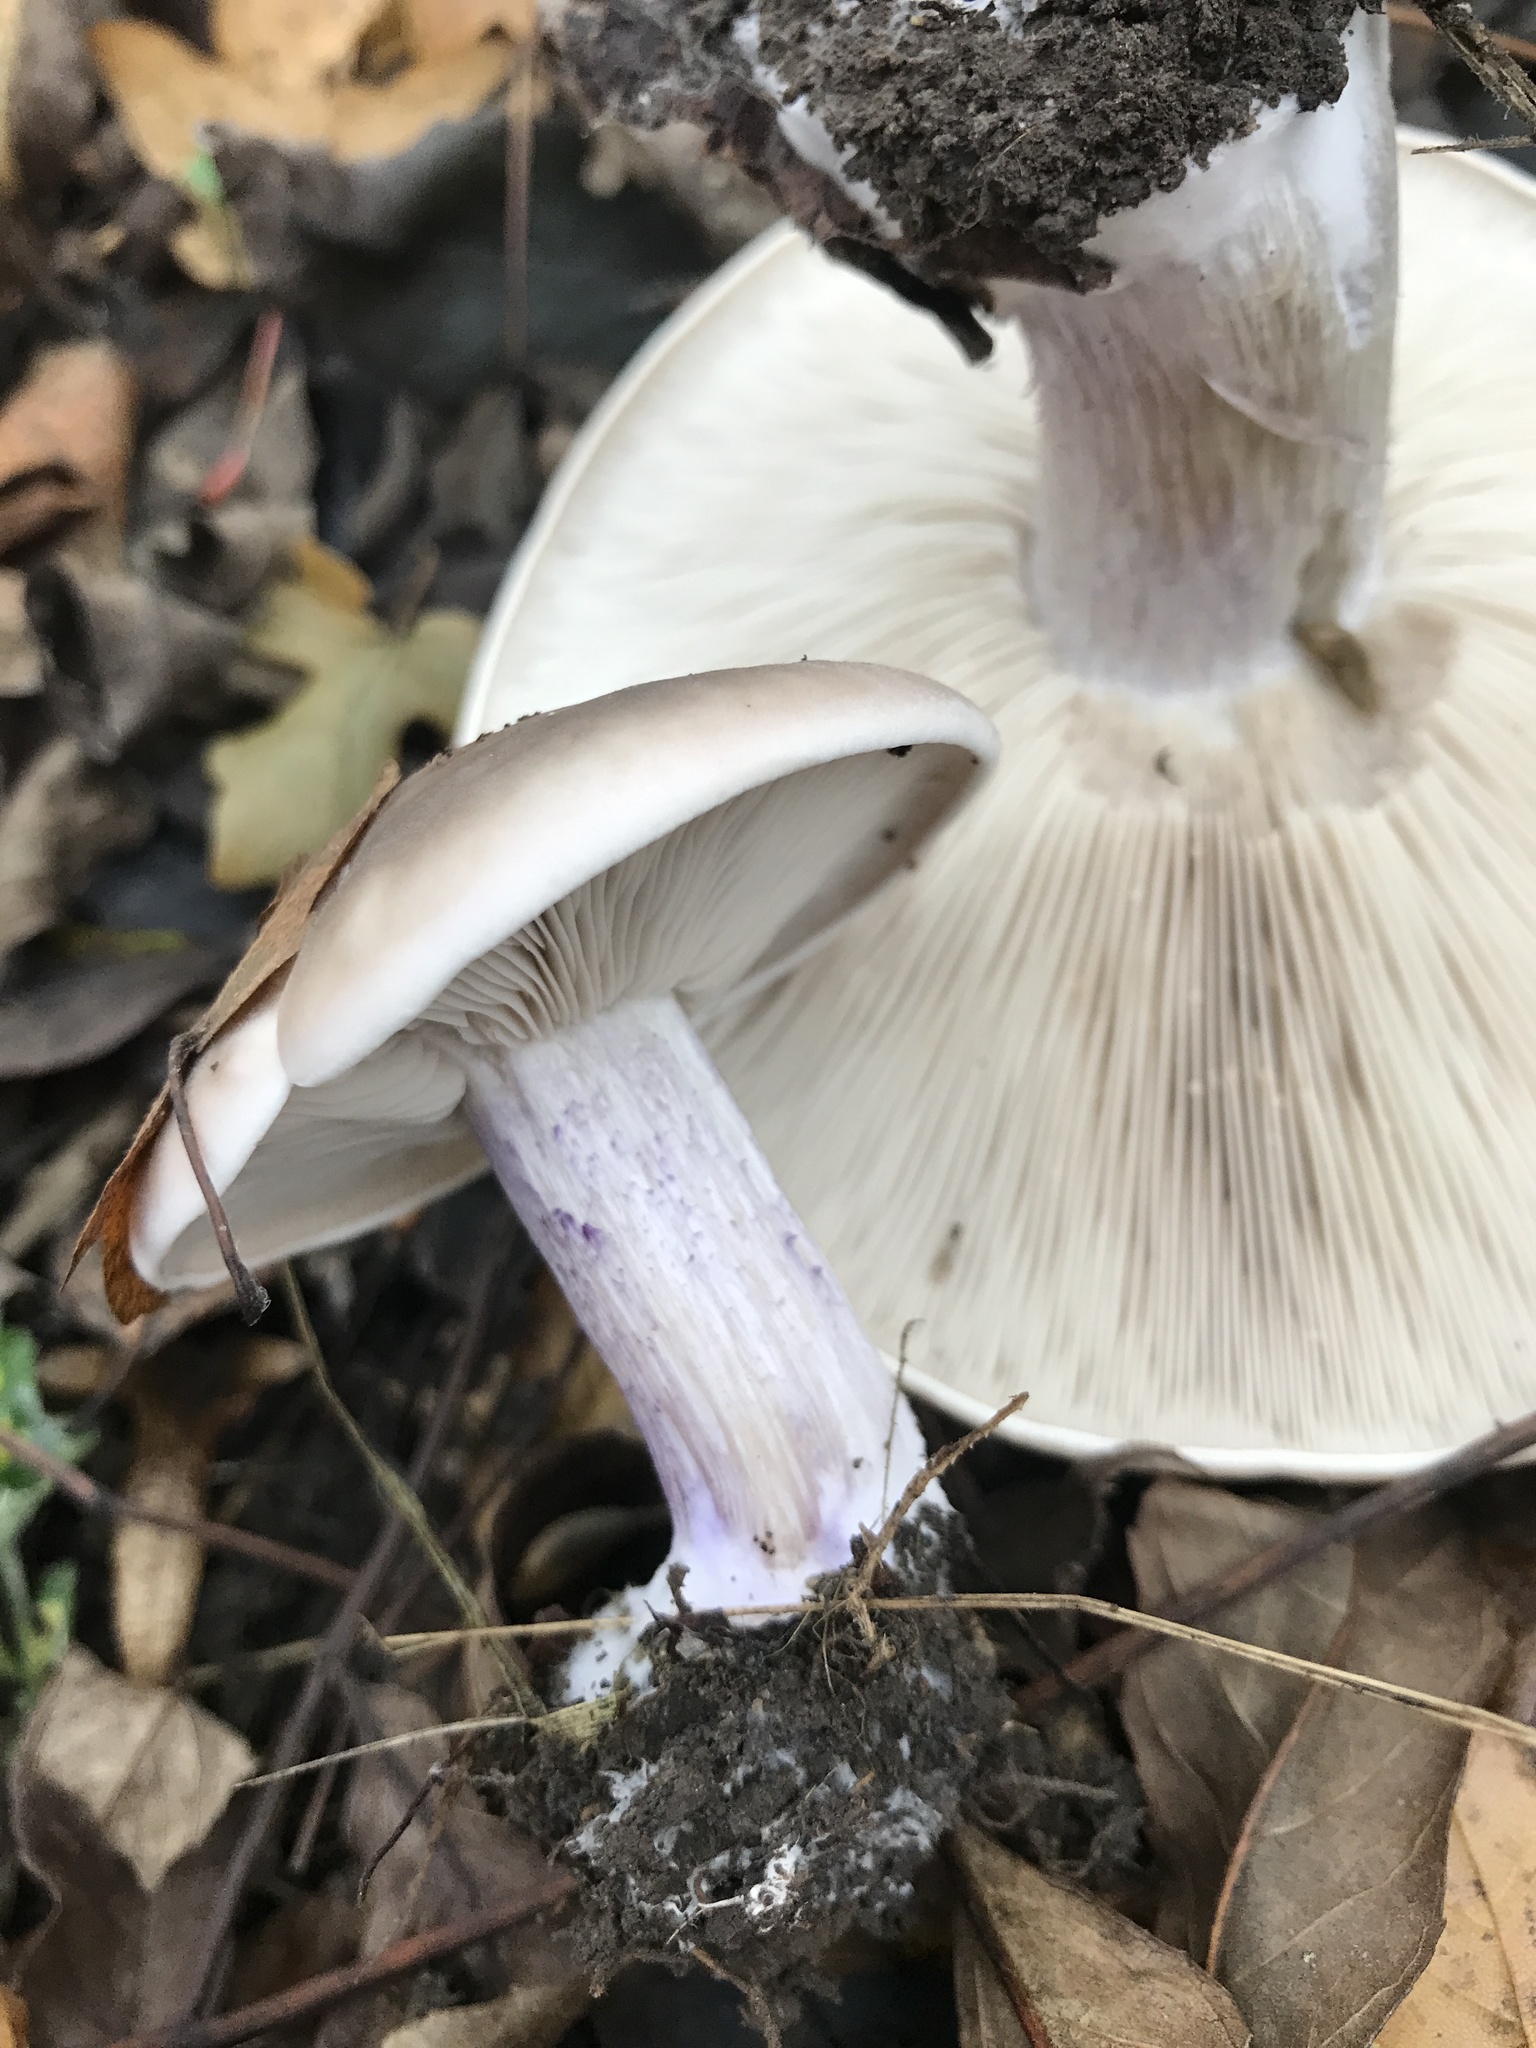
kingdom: Fungi
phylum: Basidiomycota
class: Agaricomycetes
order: Agaricales
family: Omphalotaceae
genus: Collybiopsis
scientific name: Collybiopsis peronata
